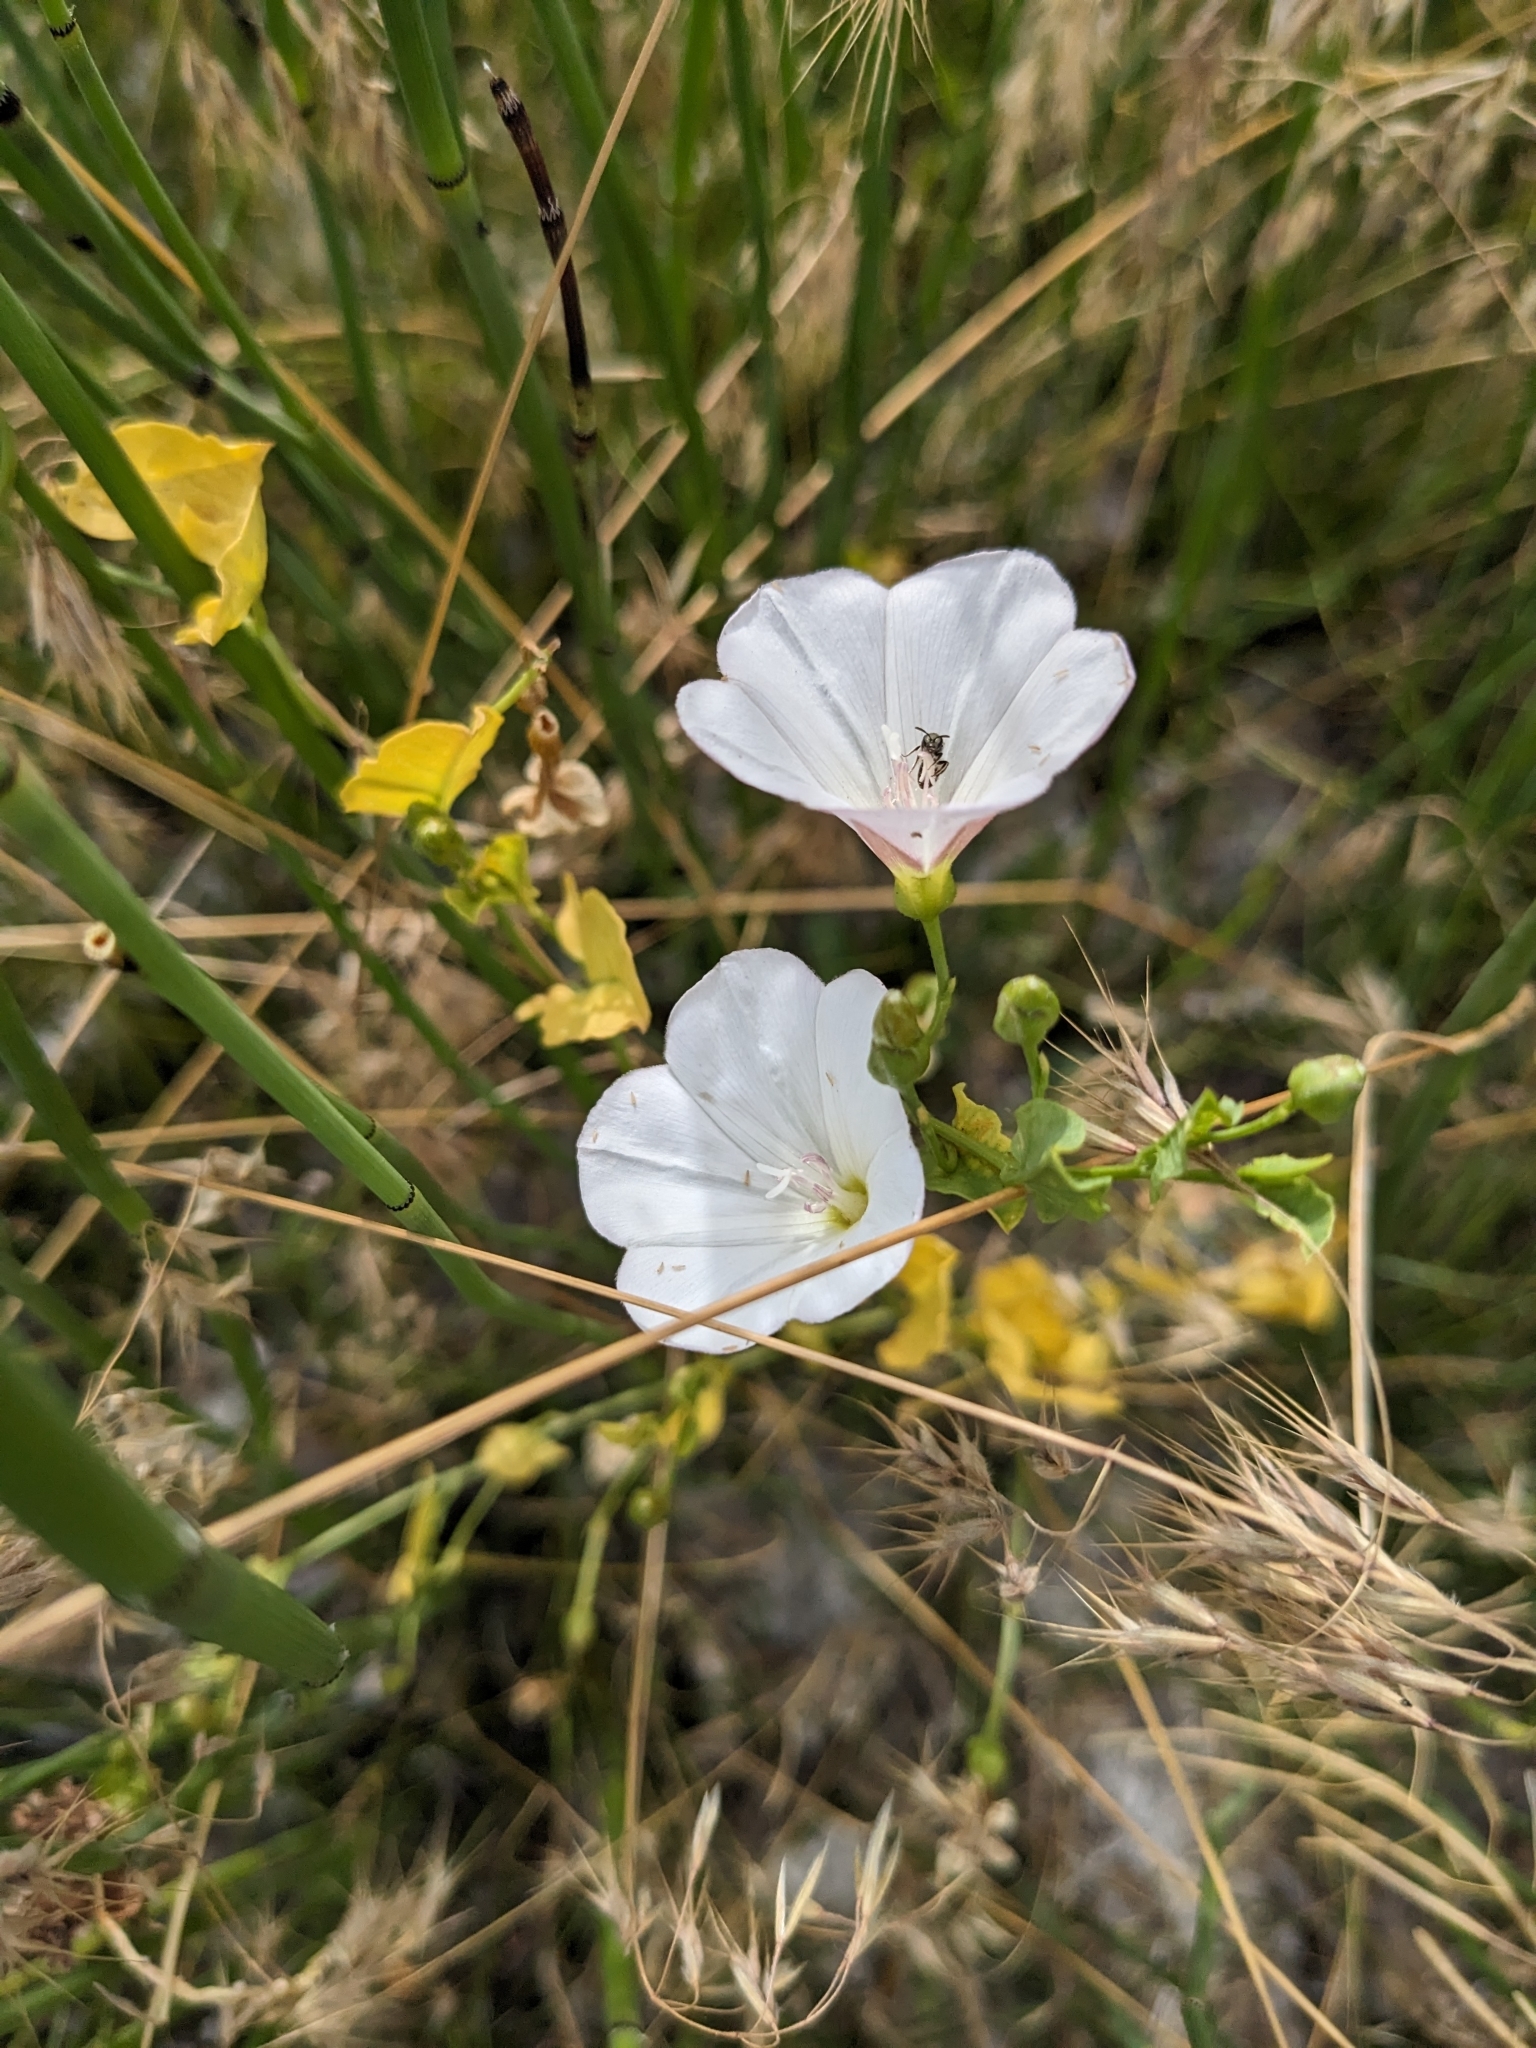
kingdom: Plantae
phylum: Tracheophyta
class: Magnoliopsida
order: Solanales
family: Convolvulaceae
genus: Convolvulus
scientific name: Convolvulus arvensis
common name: Field bindweed
